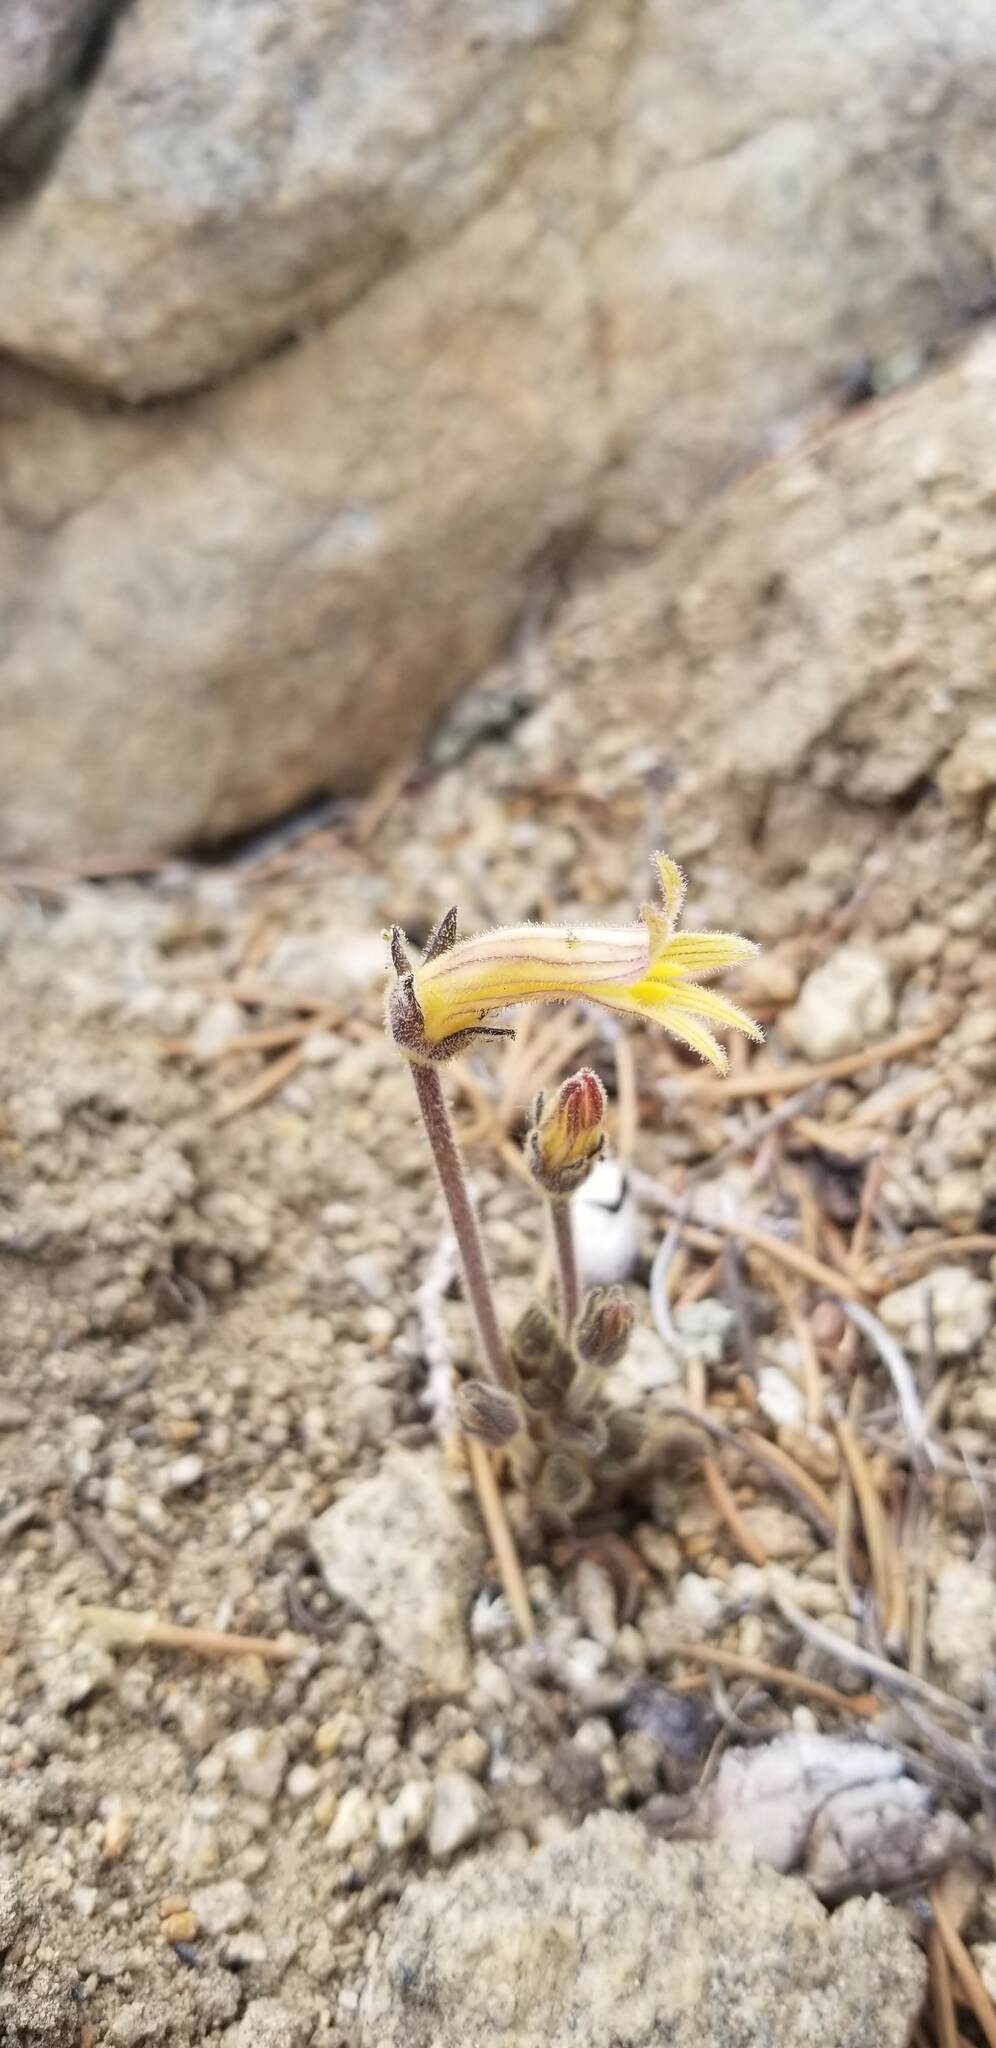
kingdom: Plantae
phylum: Tracheophyta
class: Magnoliopsida
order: Lamiales
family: Orobanchaceae
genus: Aphyllon
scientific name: Aphyllon franciscanum
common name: San francisco broomrape
